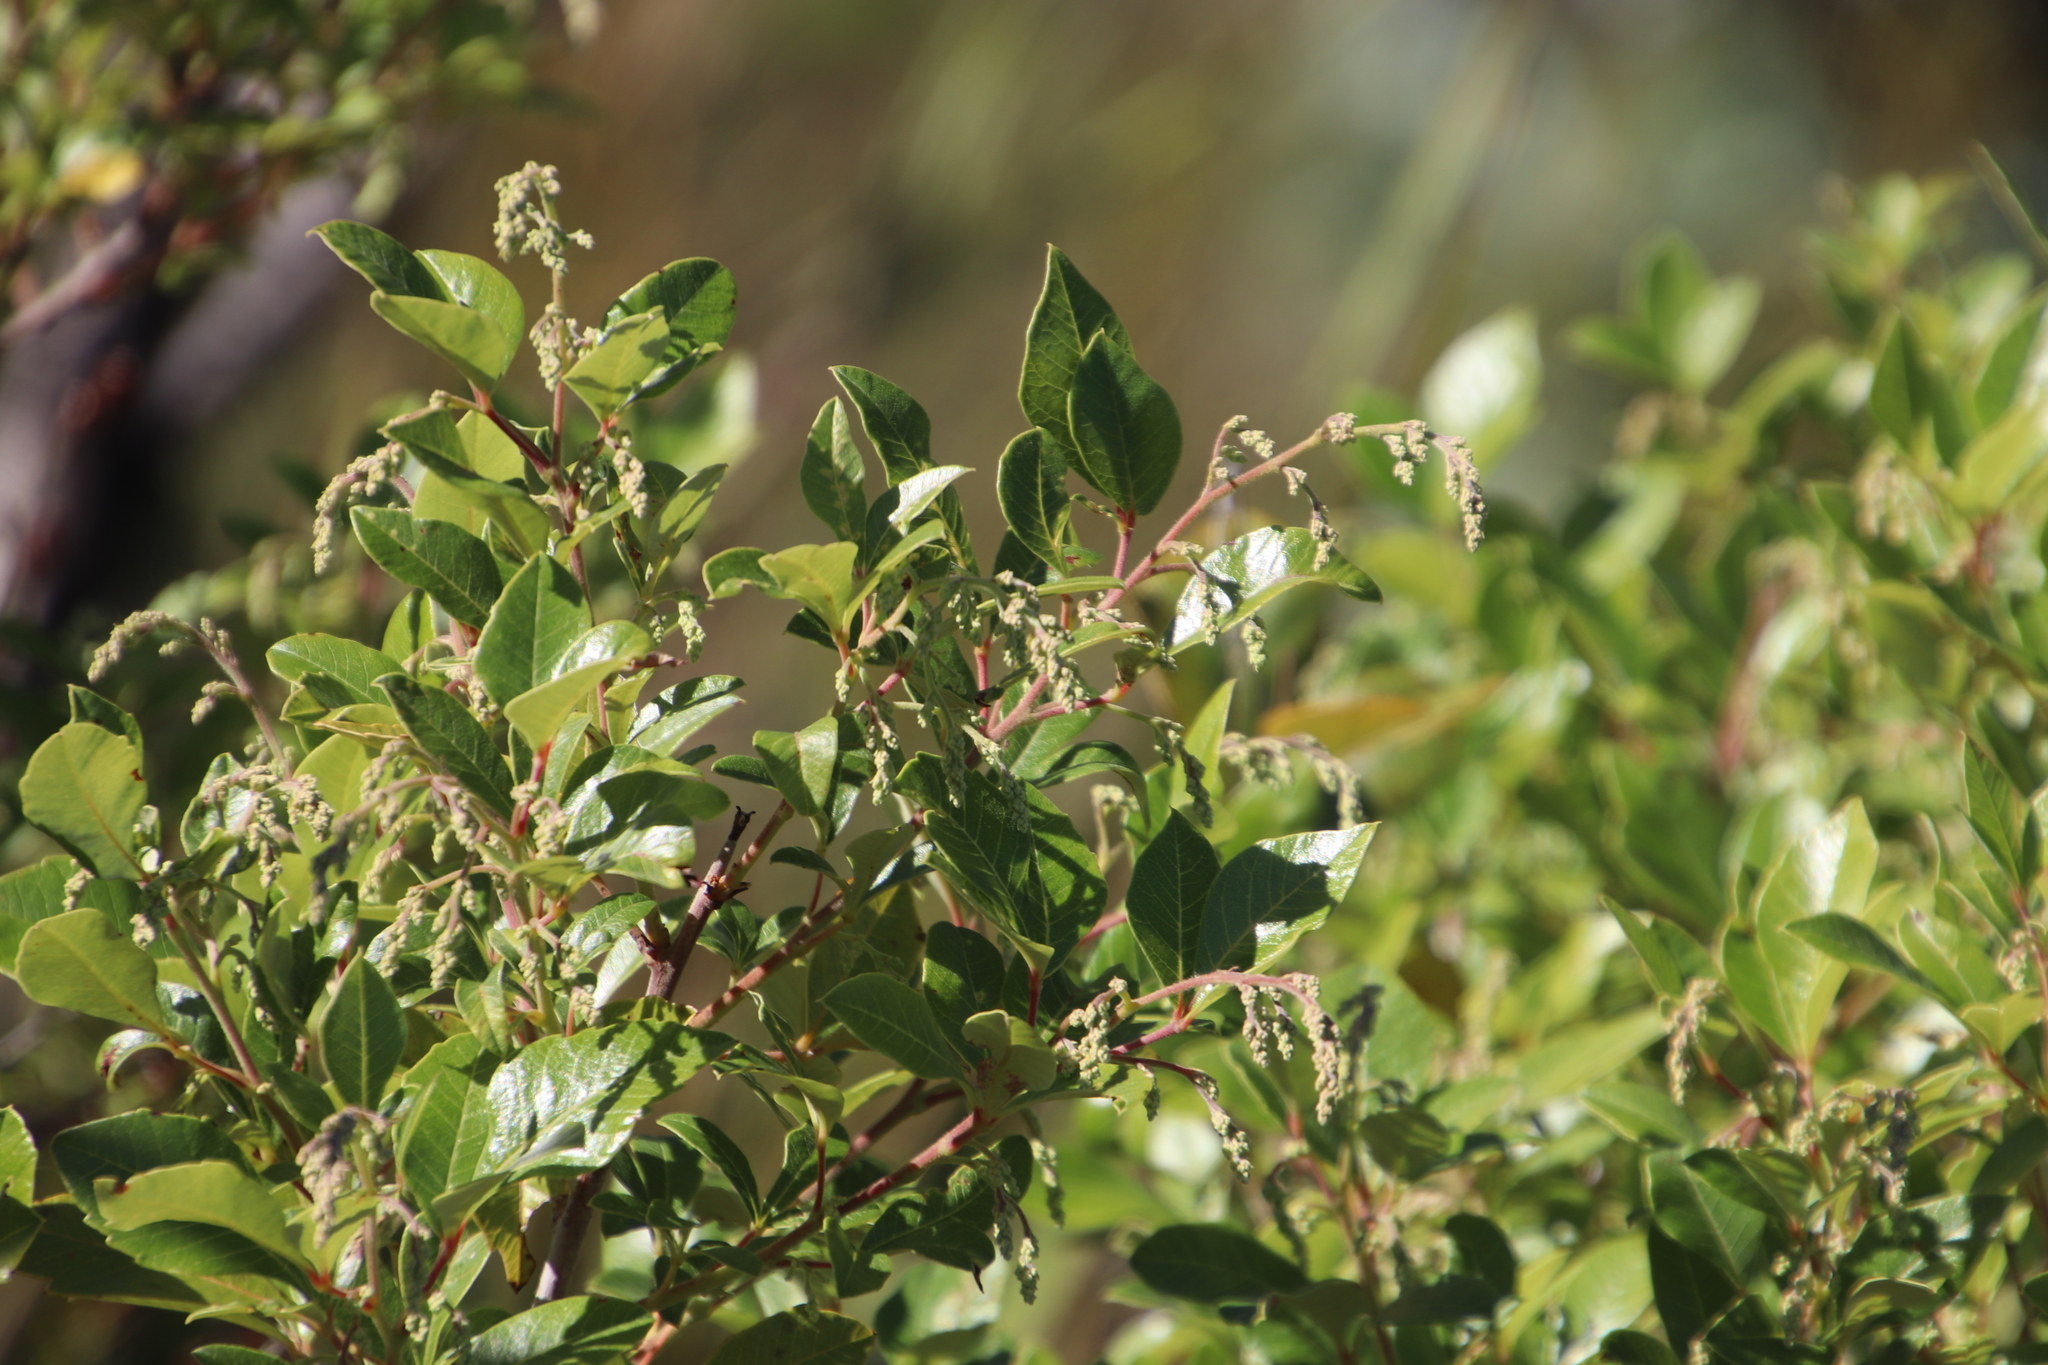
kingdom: Plantae
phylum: Tracheophyta
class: Magnoliopsida
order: Sapindales
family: Anacardiaceae
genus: Searsia
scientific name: Searsia tomentosa
